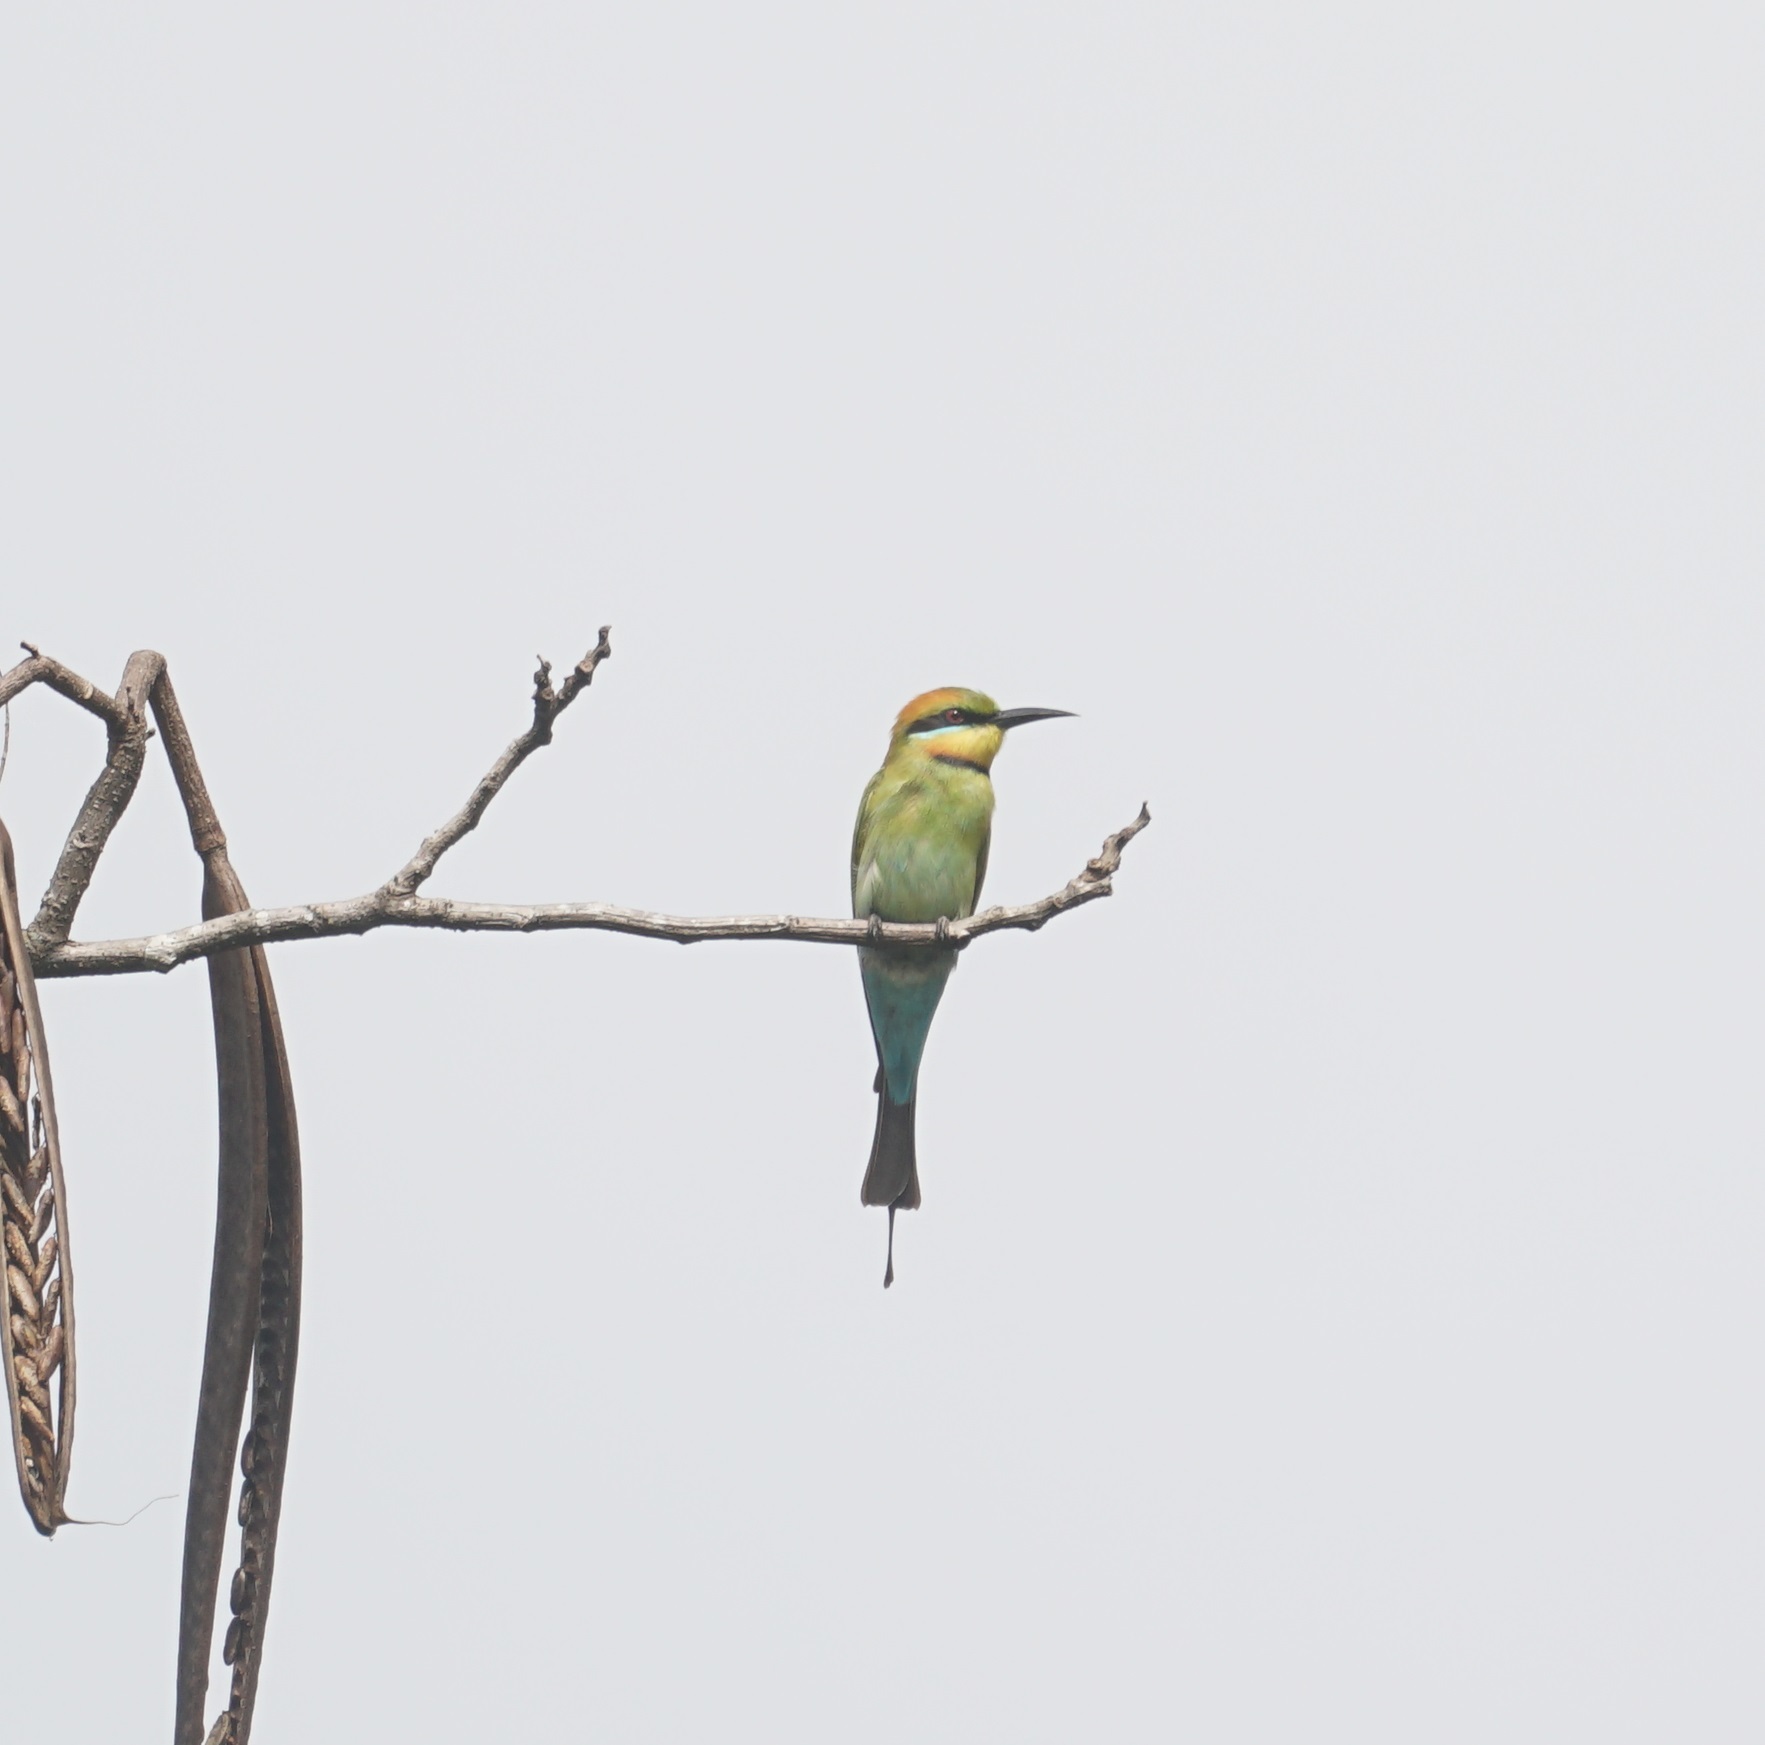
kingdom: Animalia
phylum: Chordata
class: Aves
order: Coraciiformes
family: Meropidae
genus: Merops
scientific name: Merops ornatus
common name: Rainbow bee-eater
